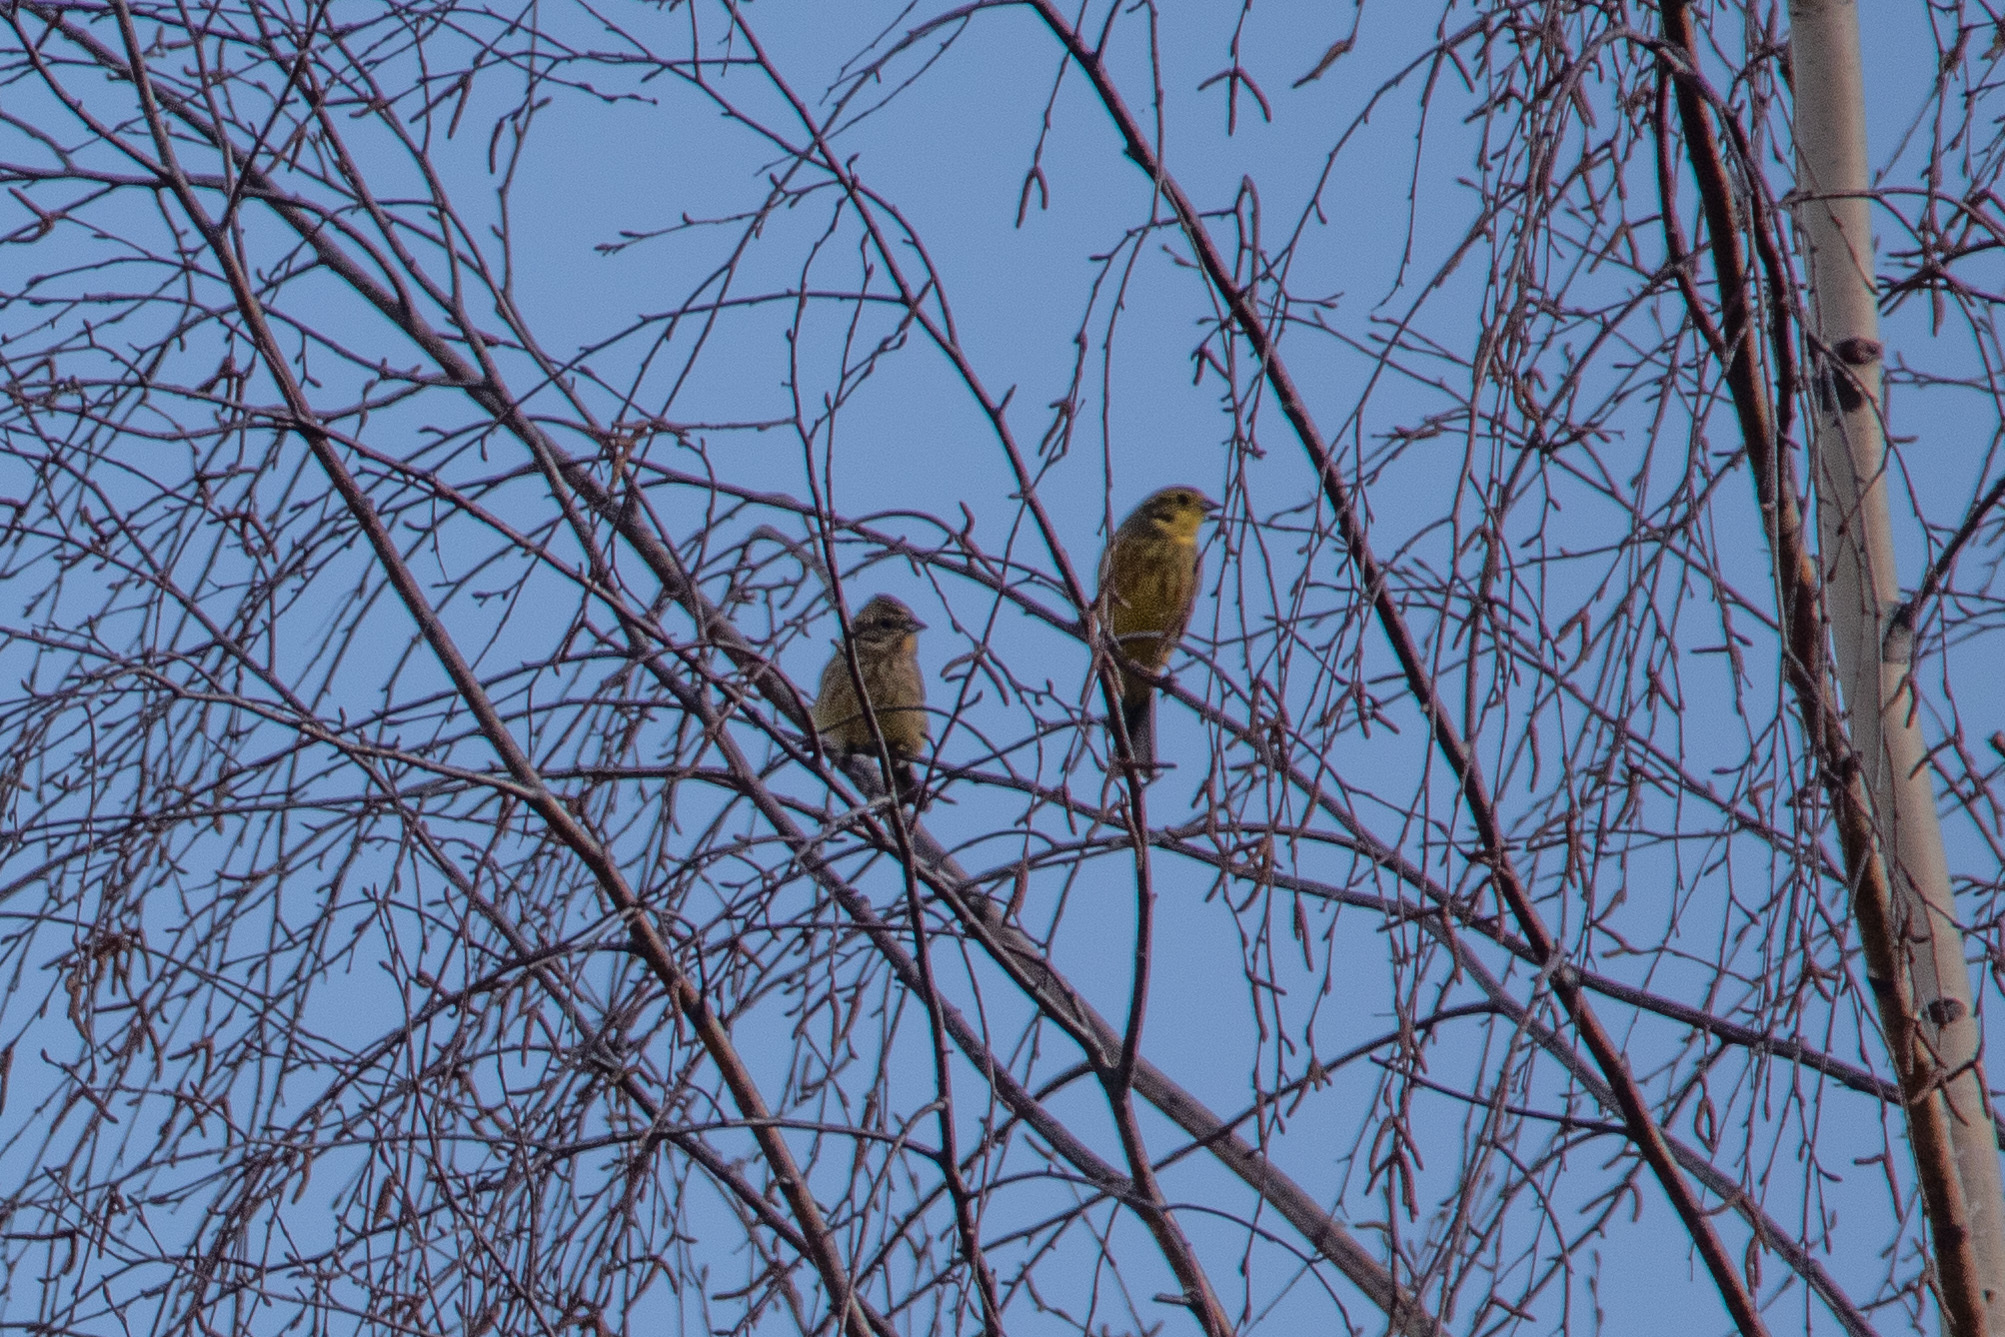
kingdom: Animalia
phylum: Chordata
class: Aves
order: Passeriformes
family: Emberizidae
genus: Emberiza
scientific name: Emberiza citrinella
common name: Yellowhammer
